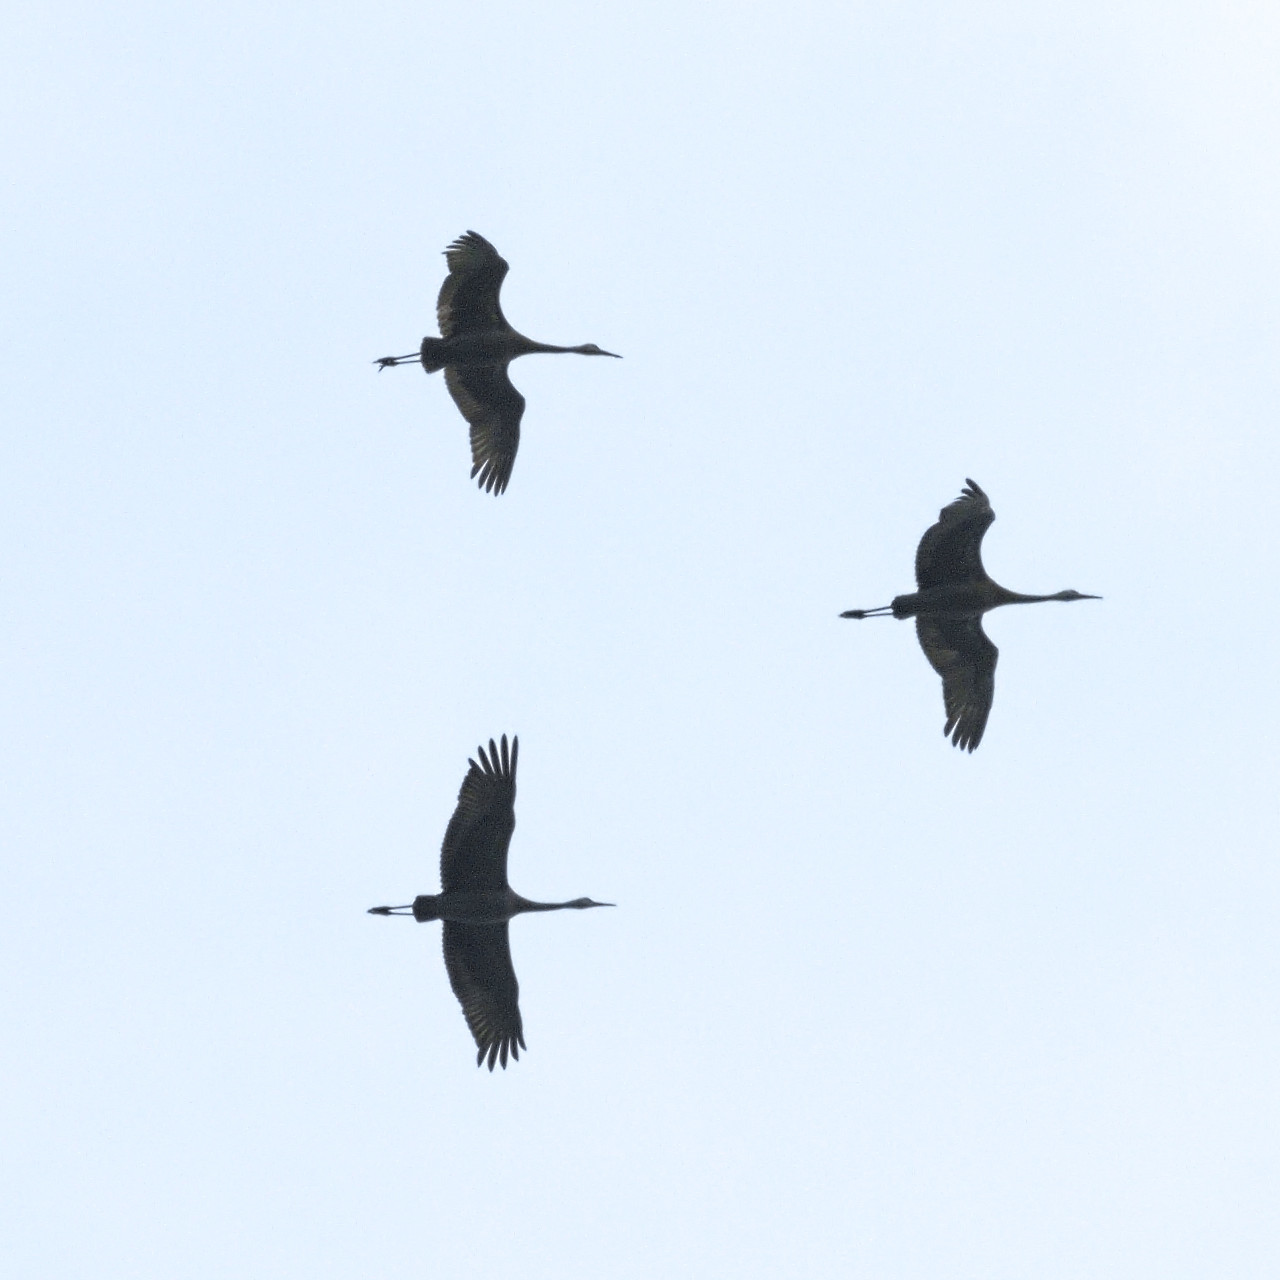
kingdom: Animalia
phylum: Chordata
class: Aves
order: Gruiformes
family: Gruidae
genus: Grus
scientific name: Grus canadensis
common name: Sandhill crane
